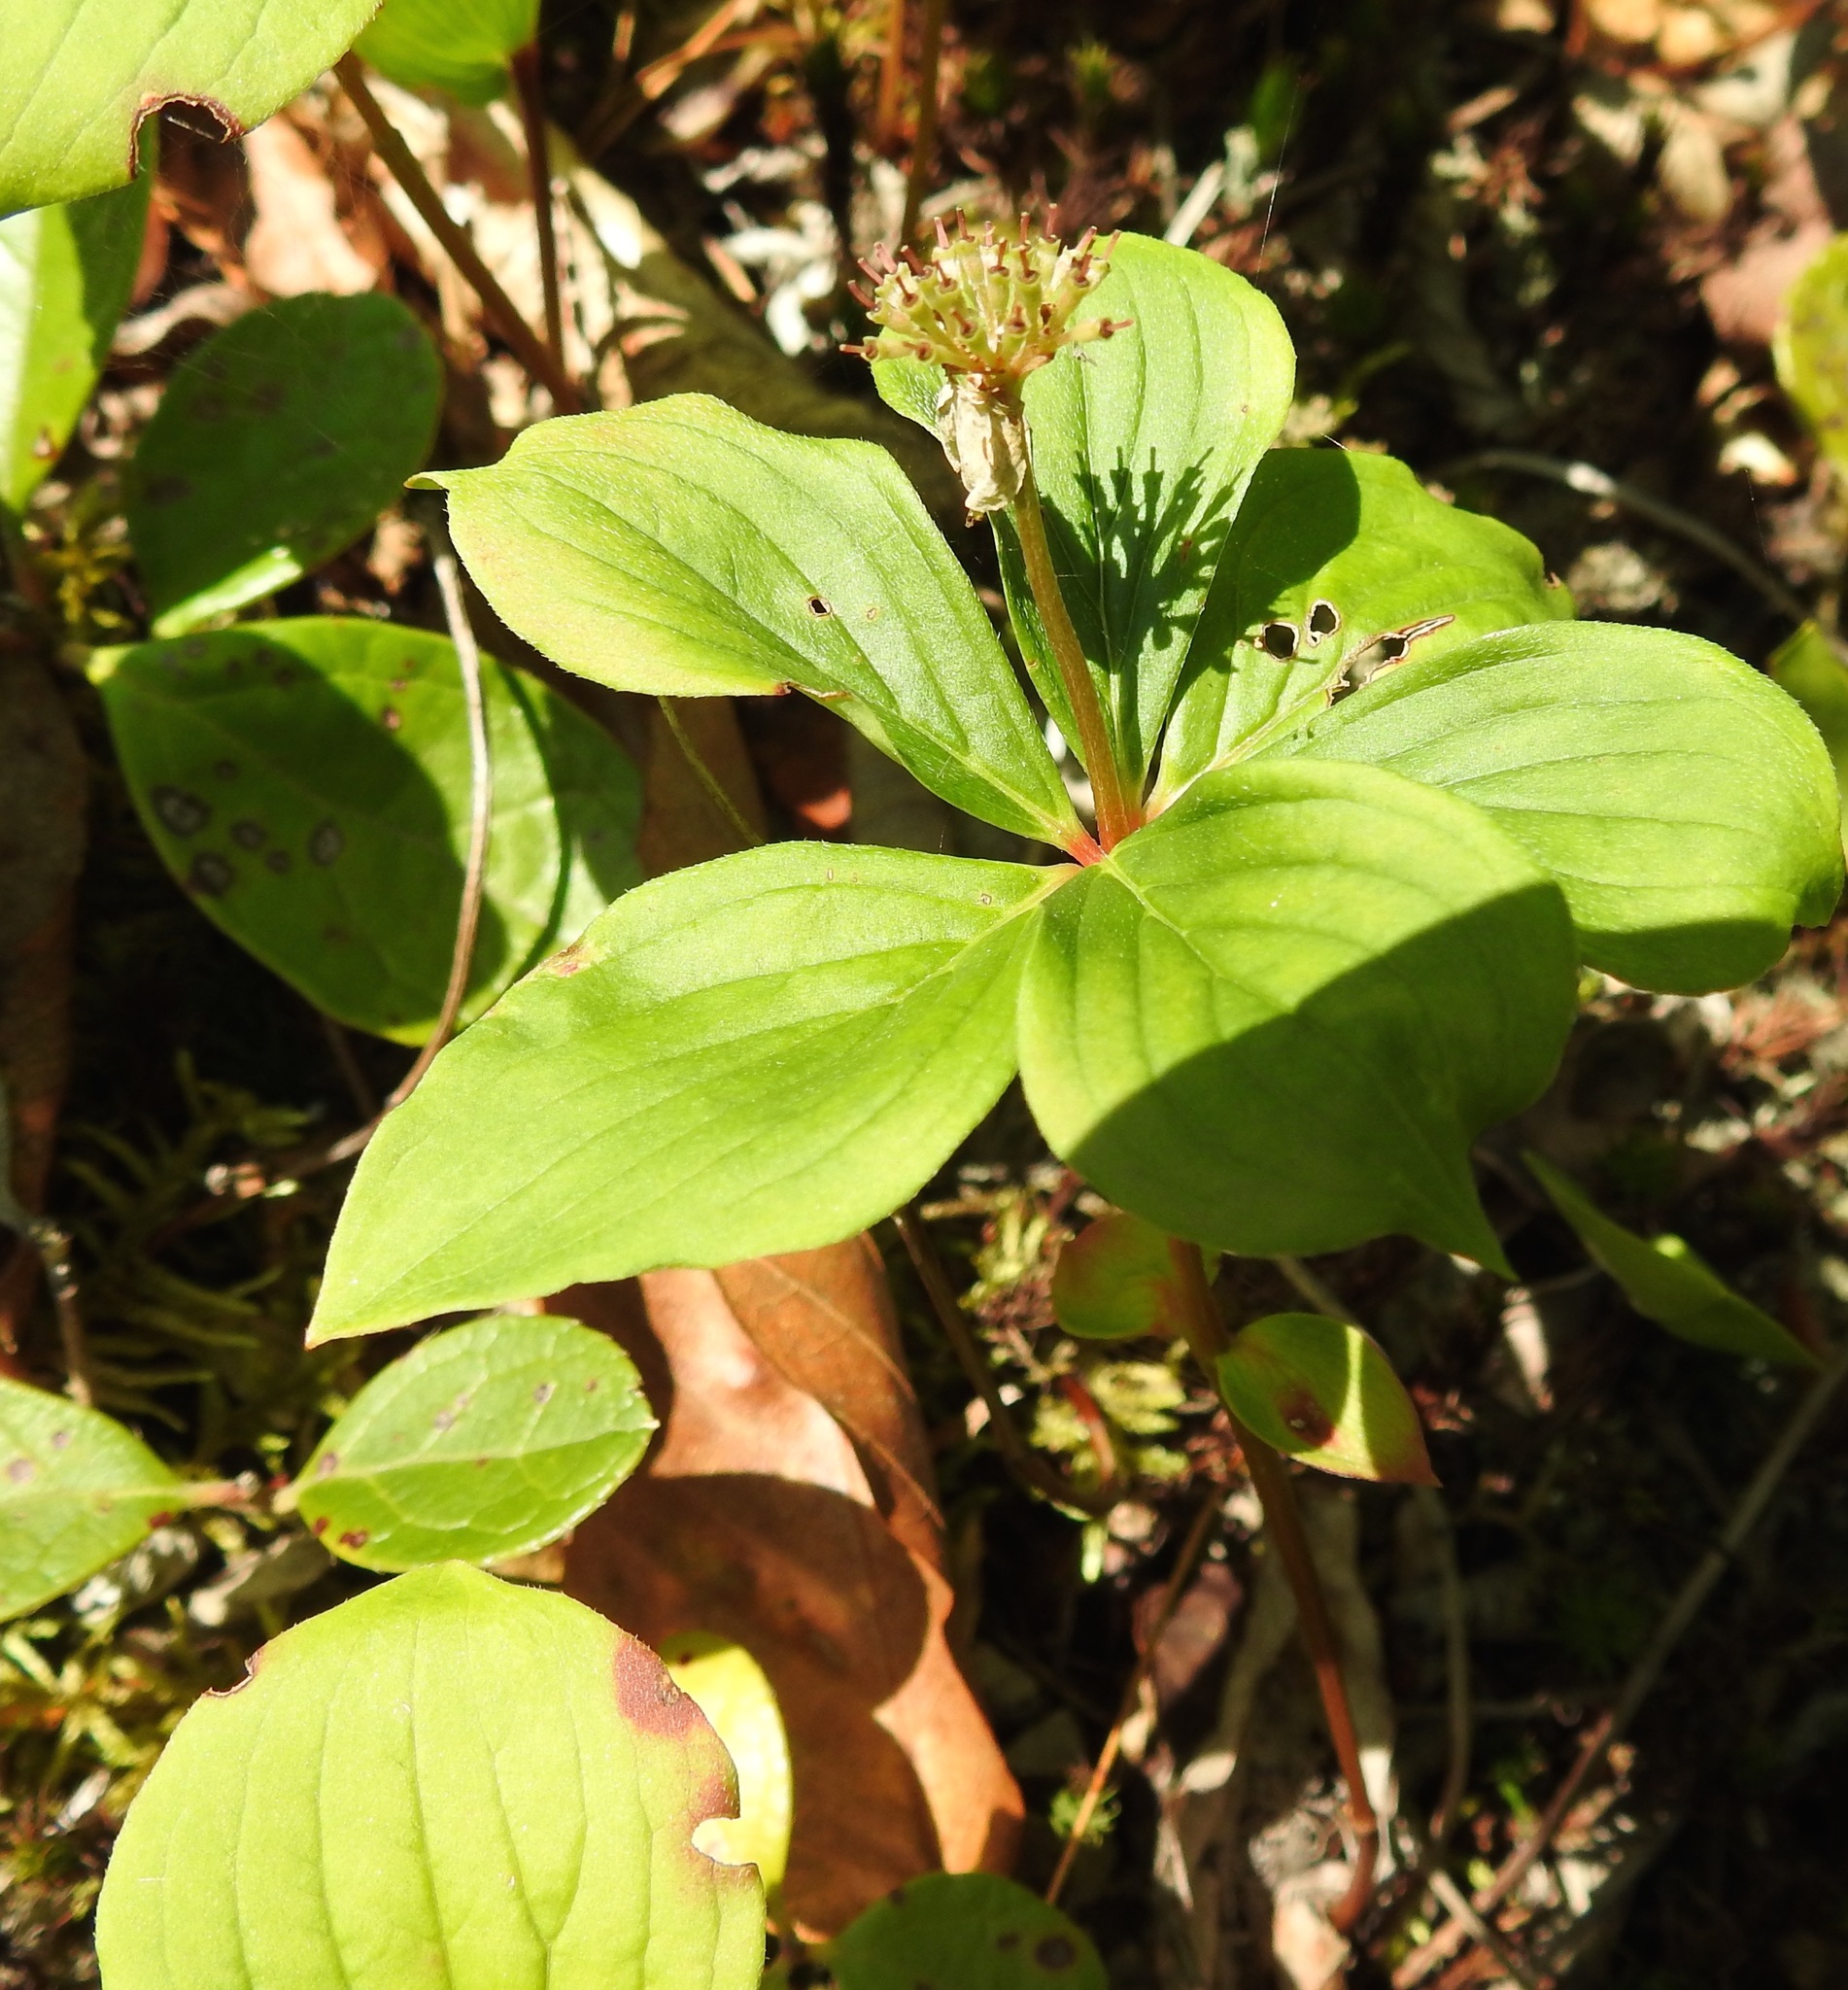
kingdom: Plantae
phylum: Tracheophyta
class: Magnoliopsida
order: Cornales
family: Cornaceae
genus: Cornus
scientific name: Cornus canadensis
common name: Creeping dogwood
